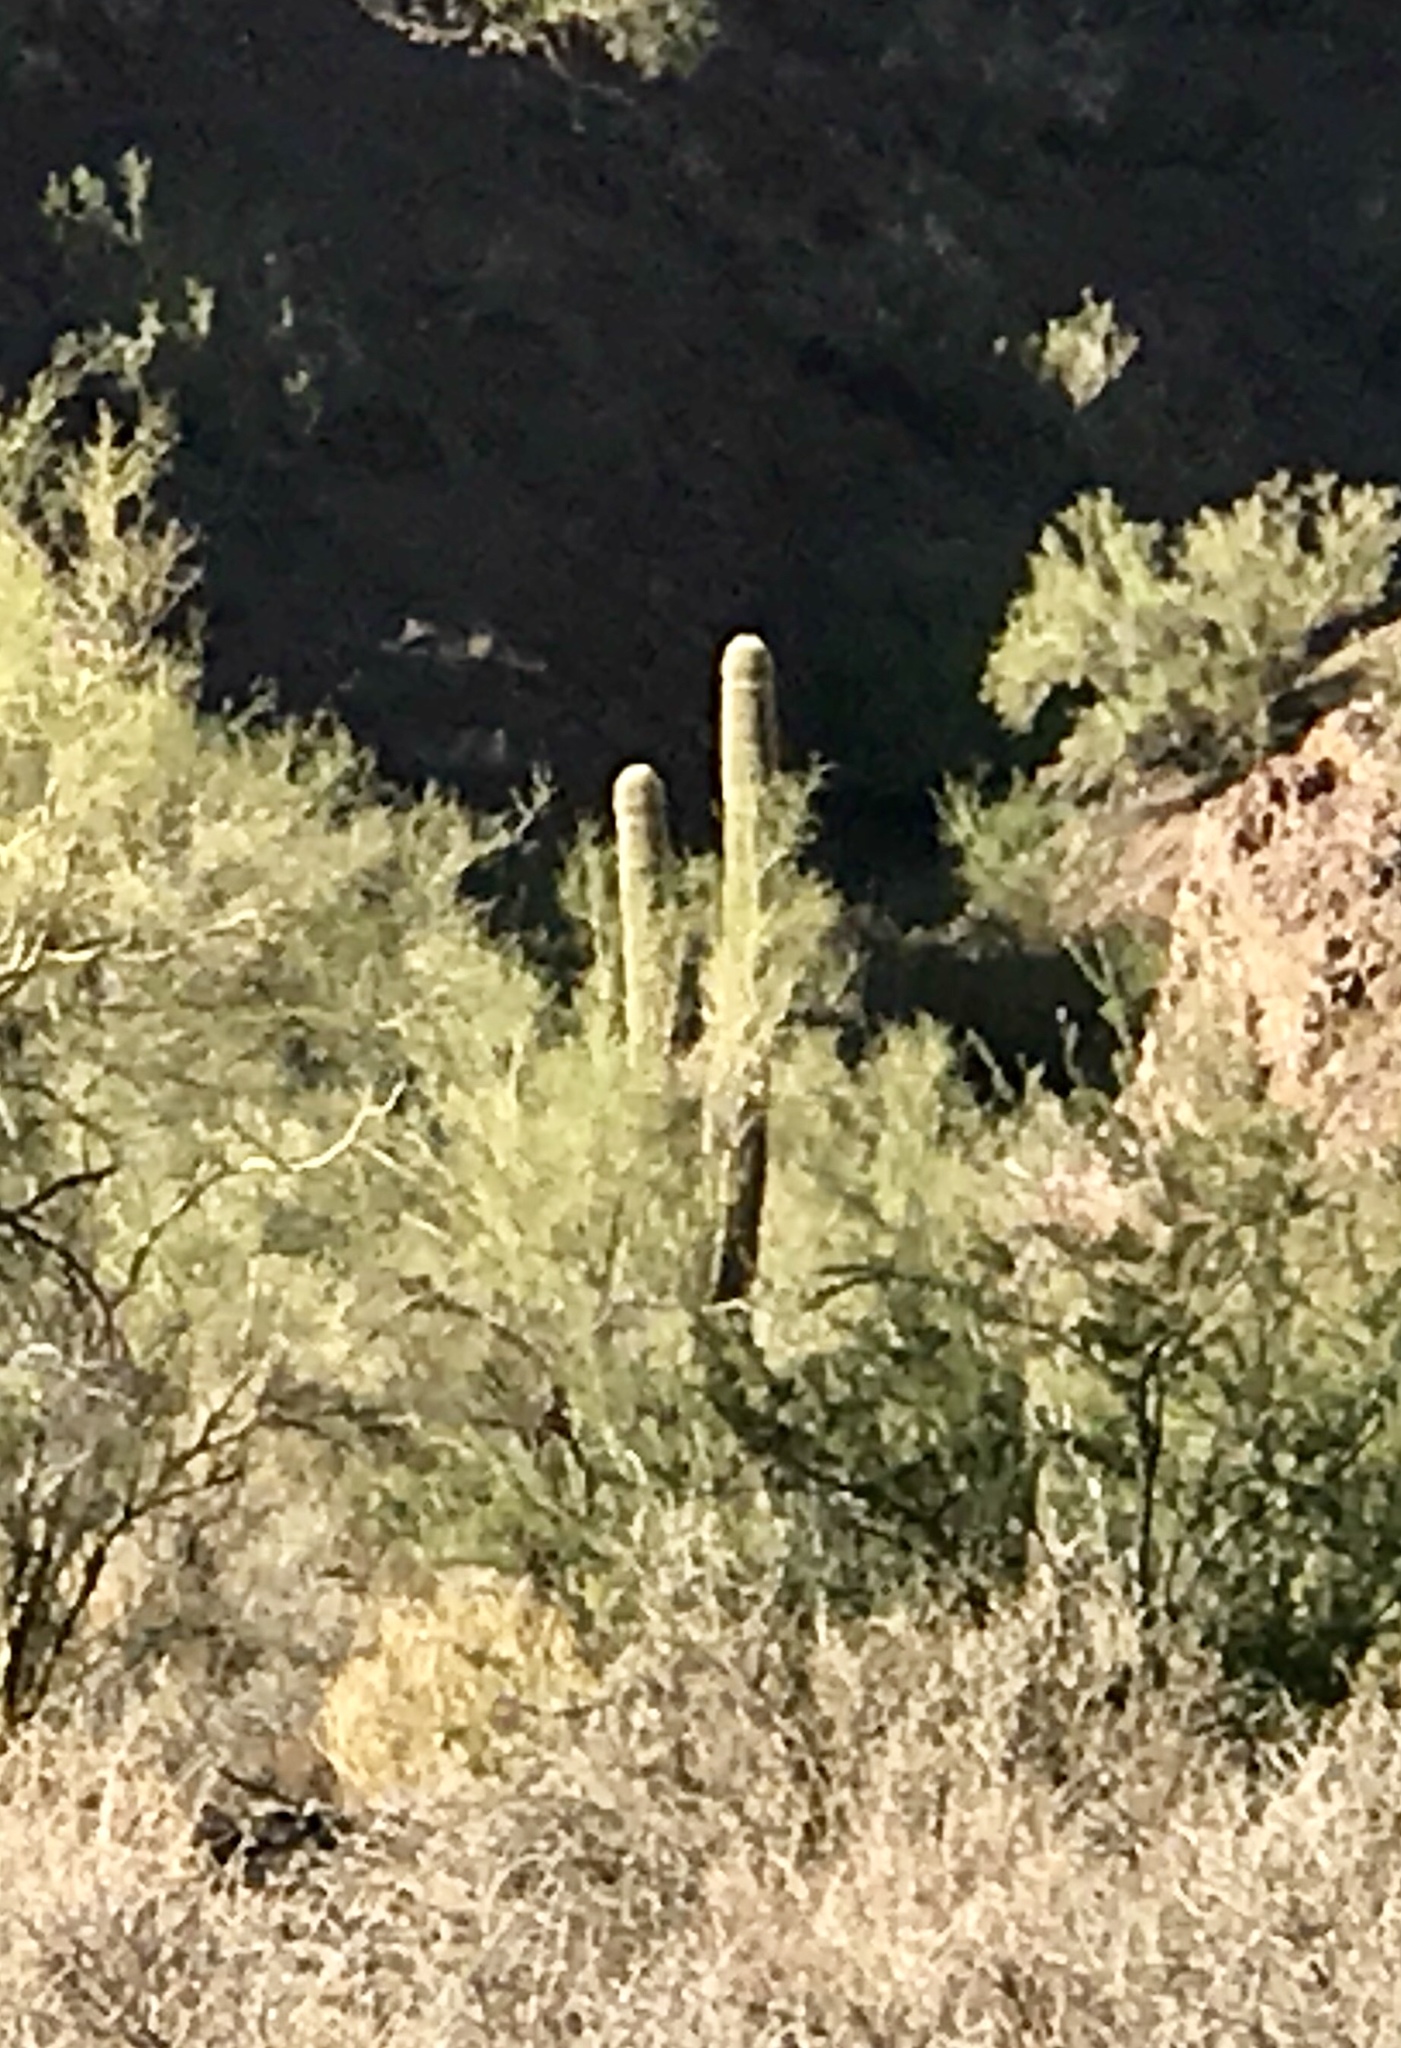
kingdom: Plantae
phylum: Tracheophyta
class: Magnoliopsida
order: Caryophyllales
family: Cactaceae
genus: Carnegiea
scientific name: Carnegiea gigantea
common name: Saguaro
